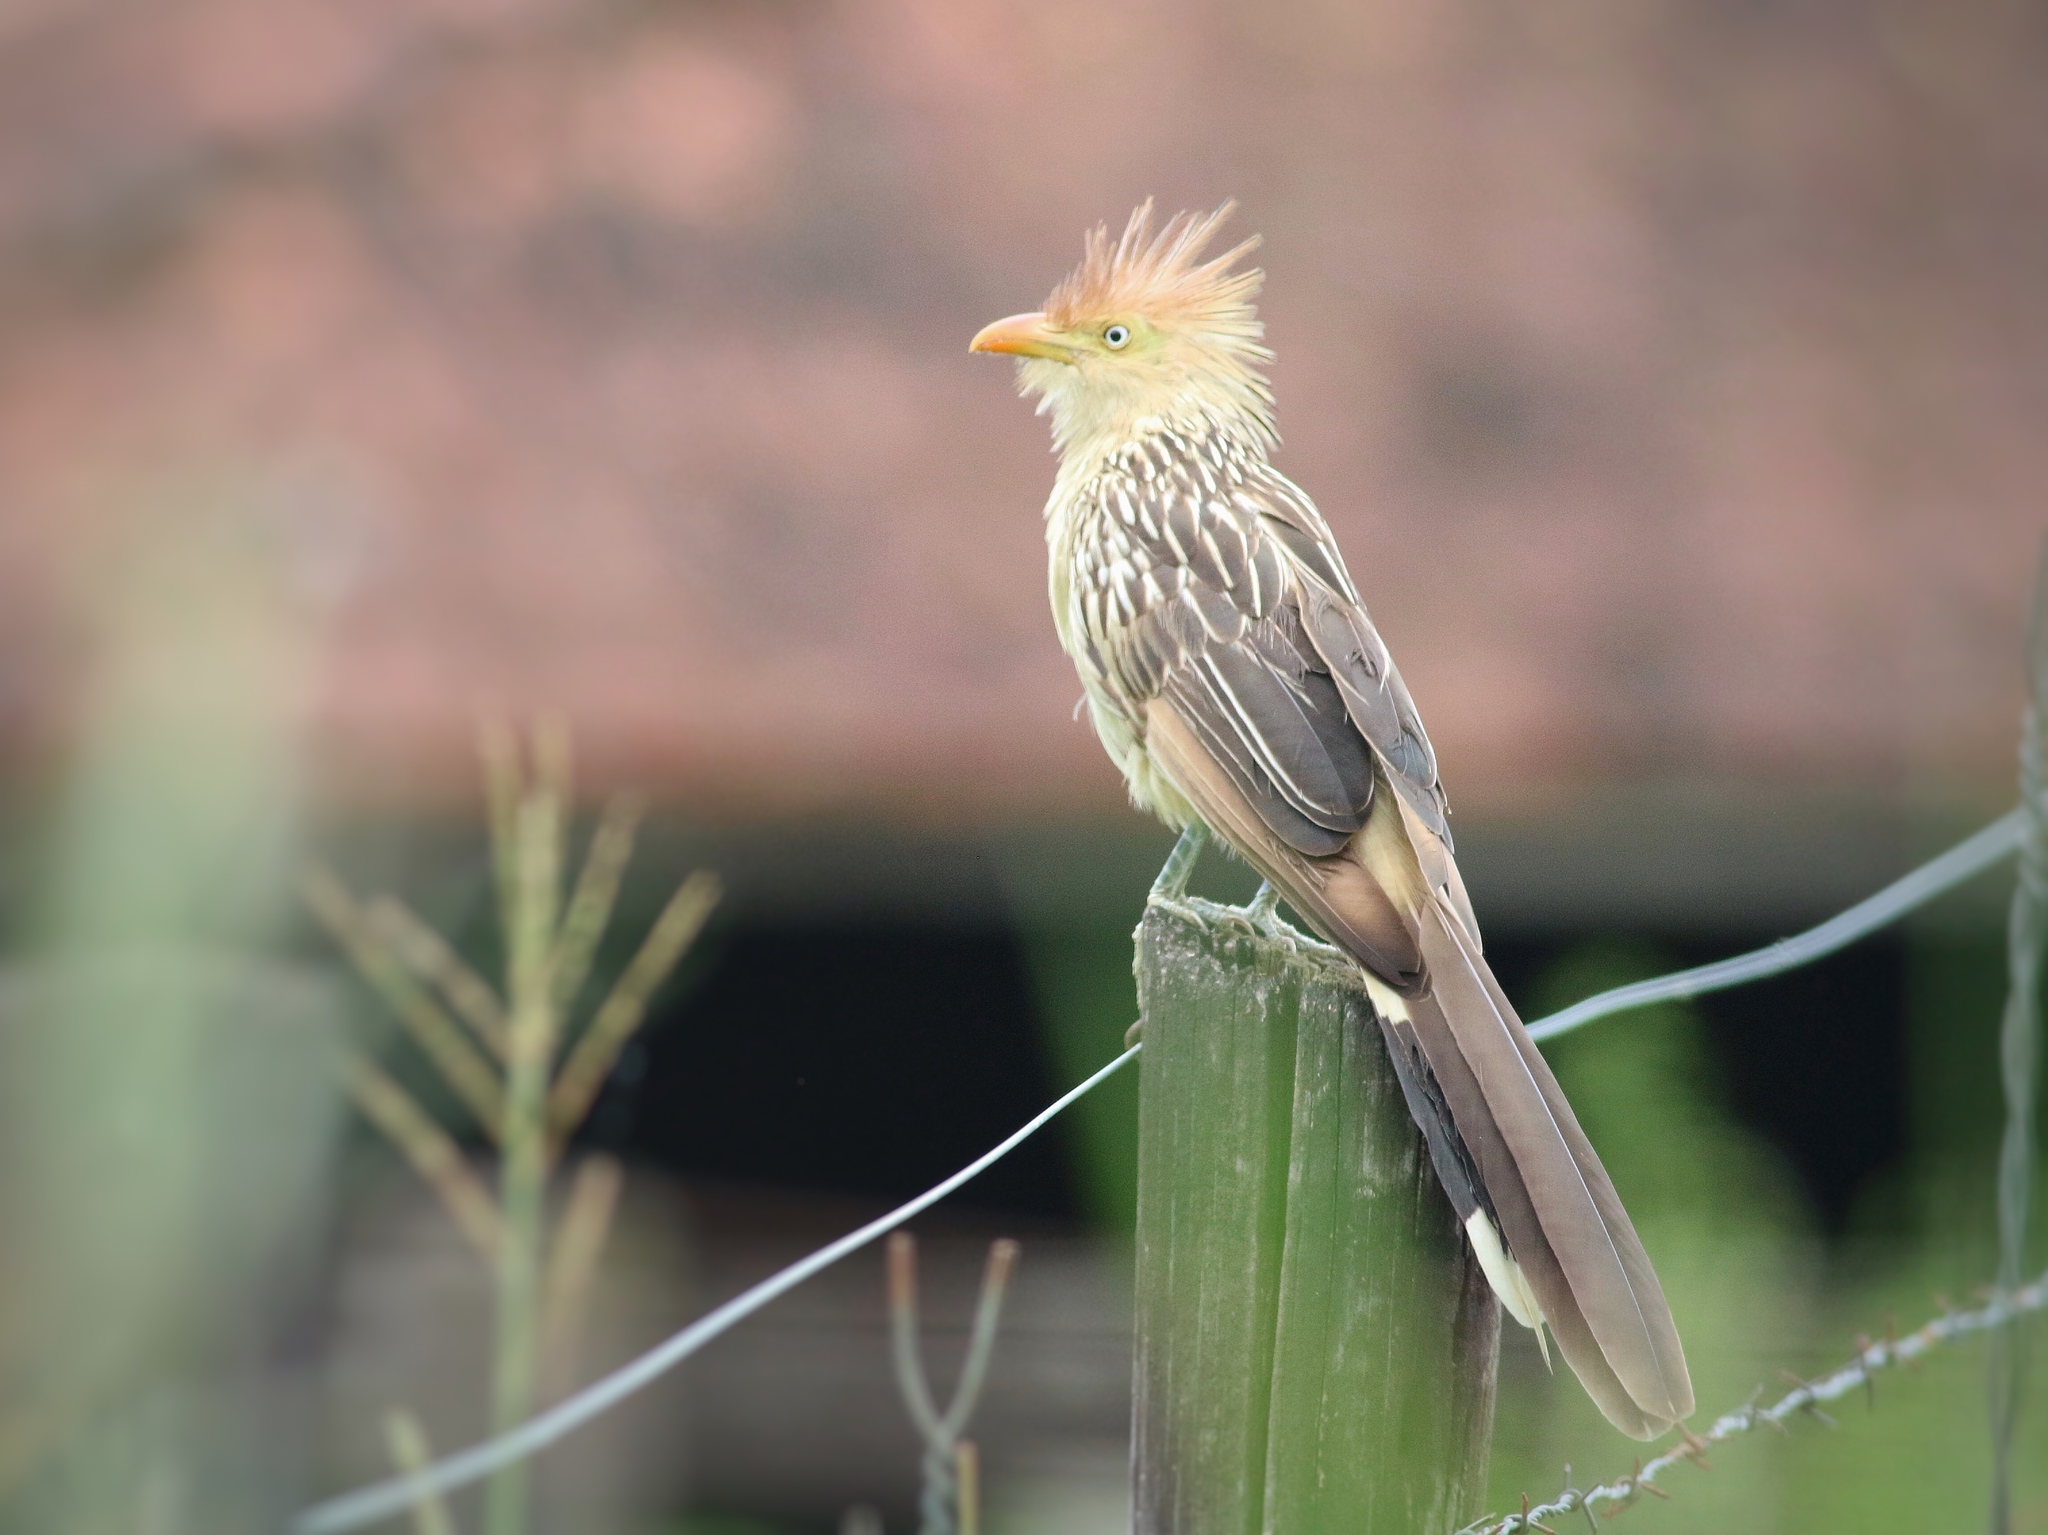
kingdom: Animalia
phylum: Chordata
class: Aves
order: Cuculiformes
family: Cuculidae
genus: Guira
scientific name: Guira guira
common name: Guira cuckoo
